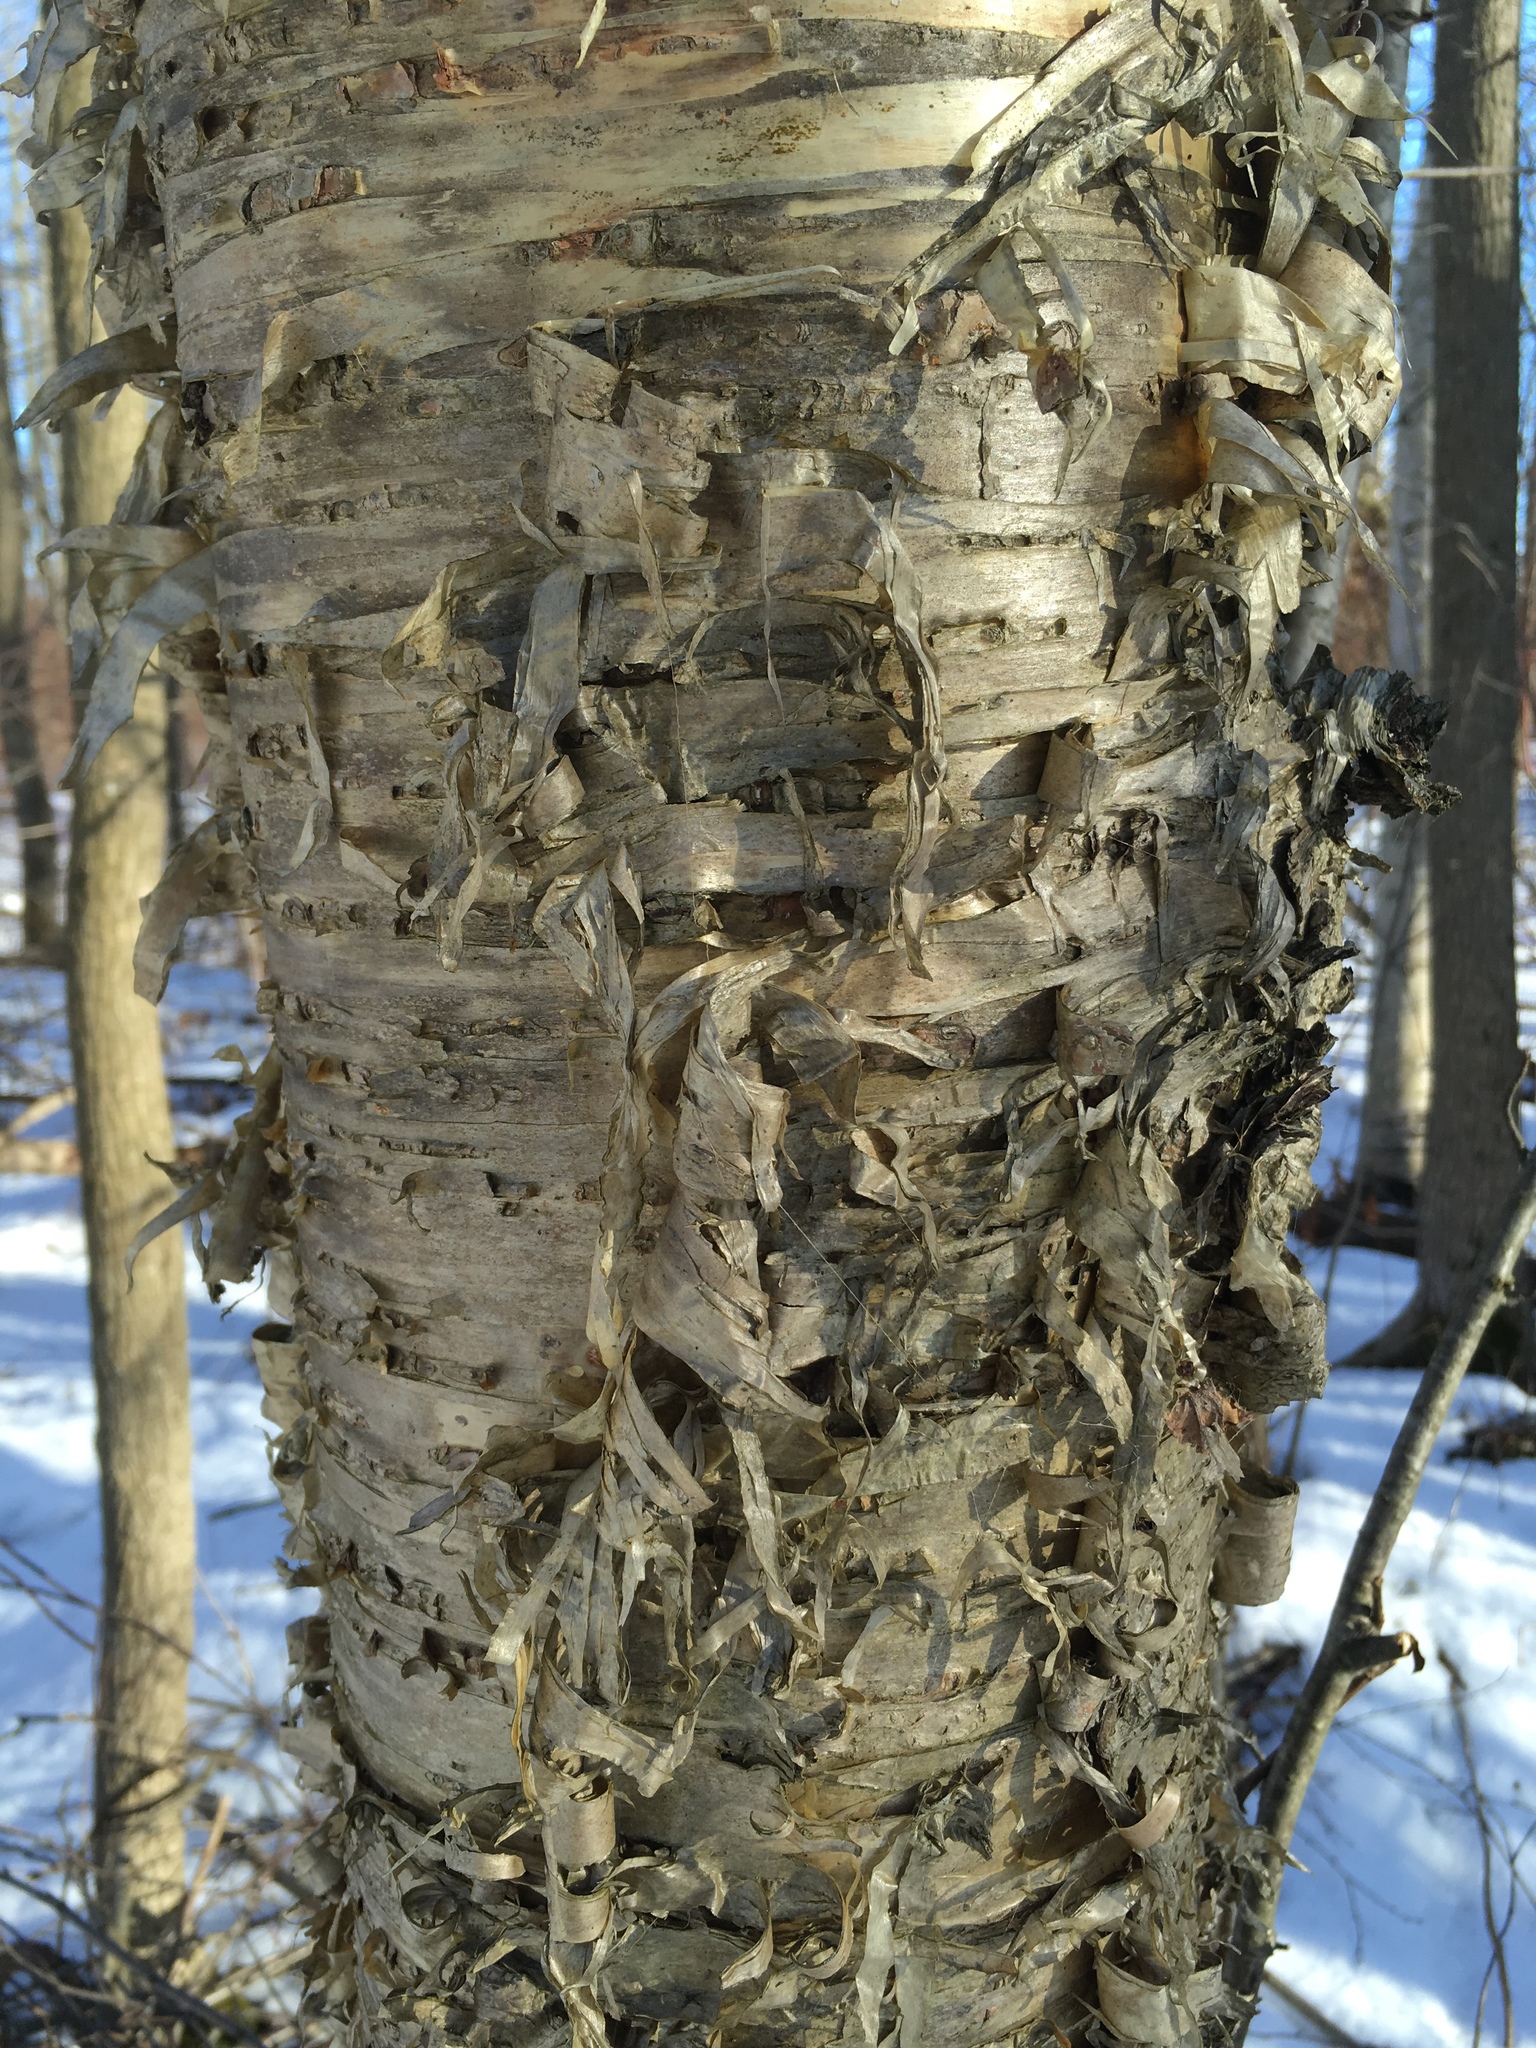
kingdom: Plantae
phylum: Tracheophyta
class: Magnoliopsida
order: Fagales
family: Betulaceae
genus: Betula
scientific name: Betula alleghaniensis
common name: Yellow birch
